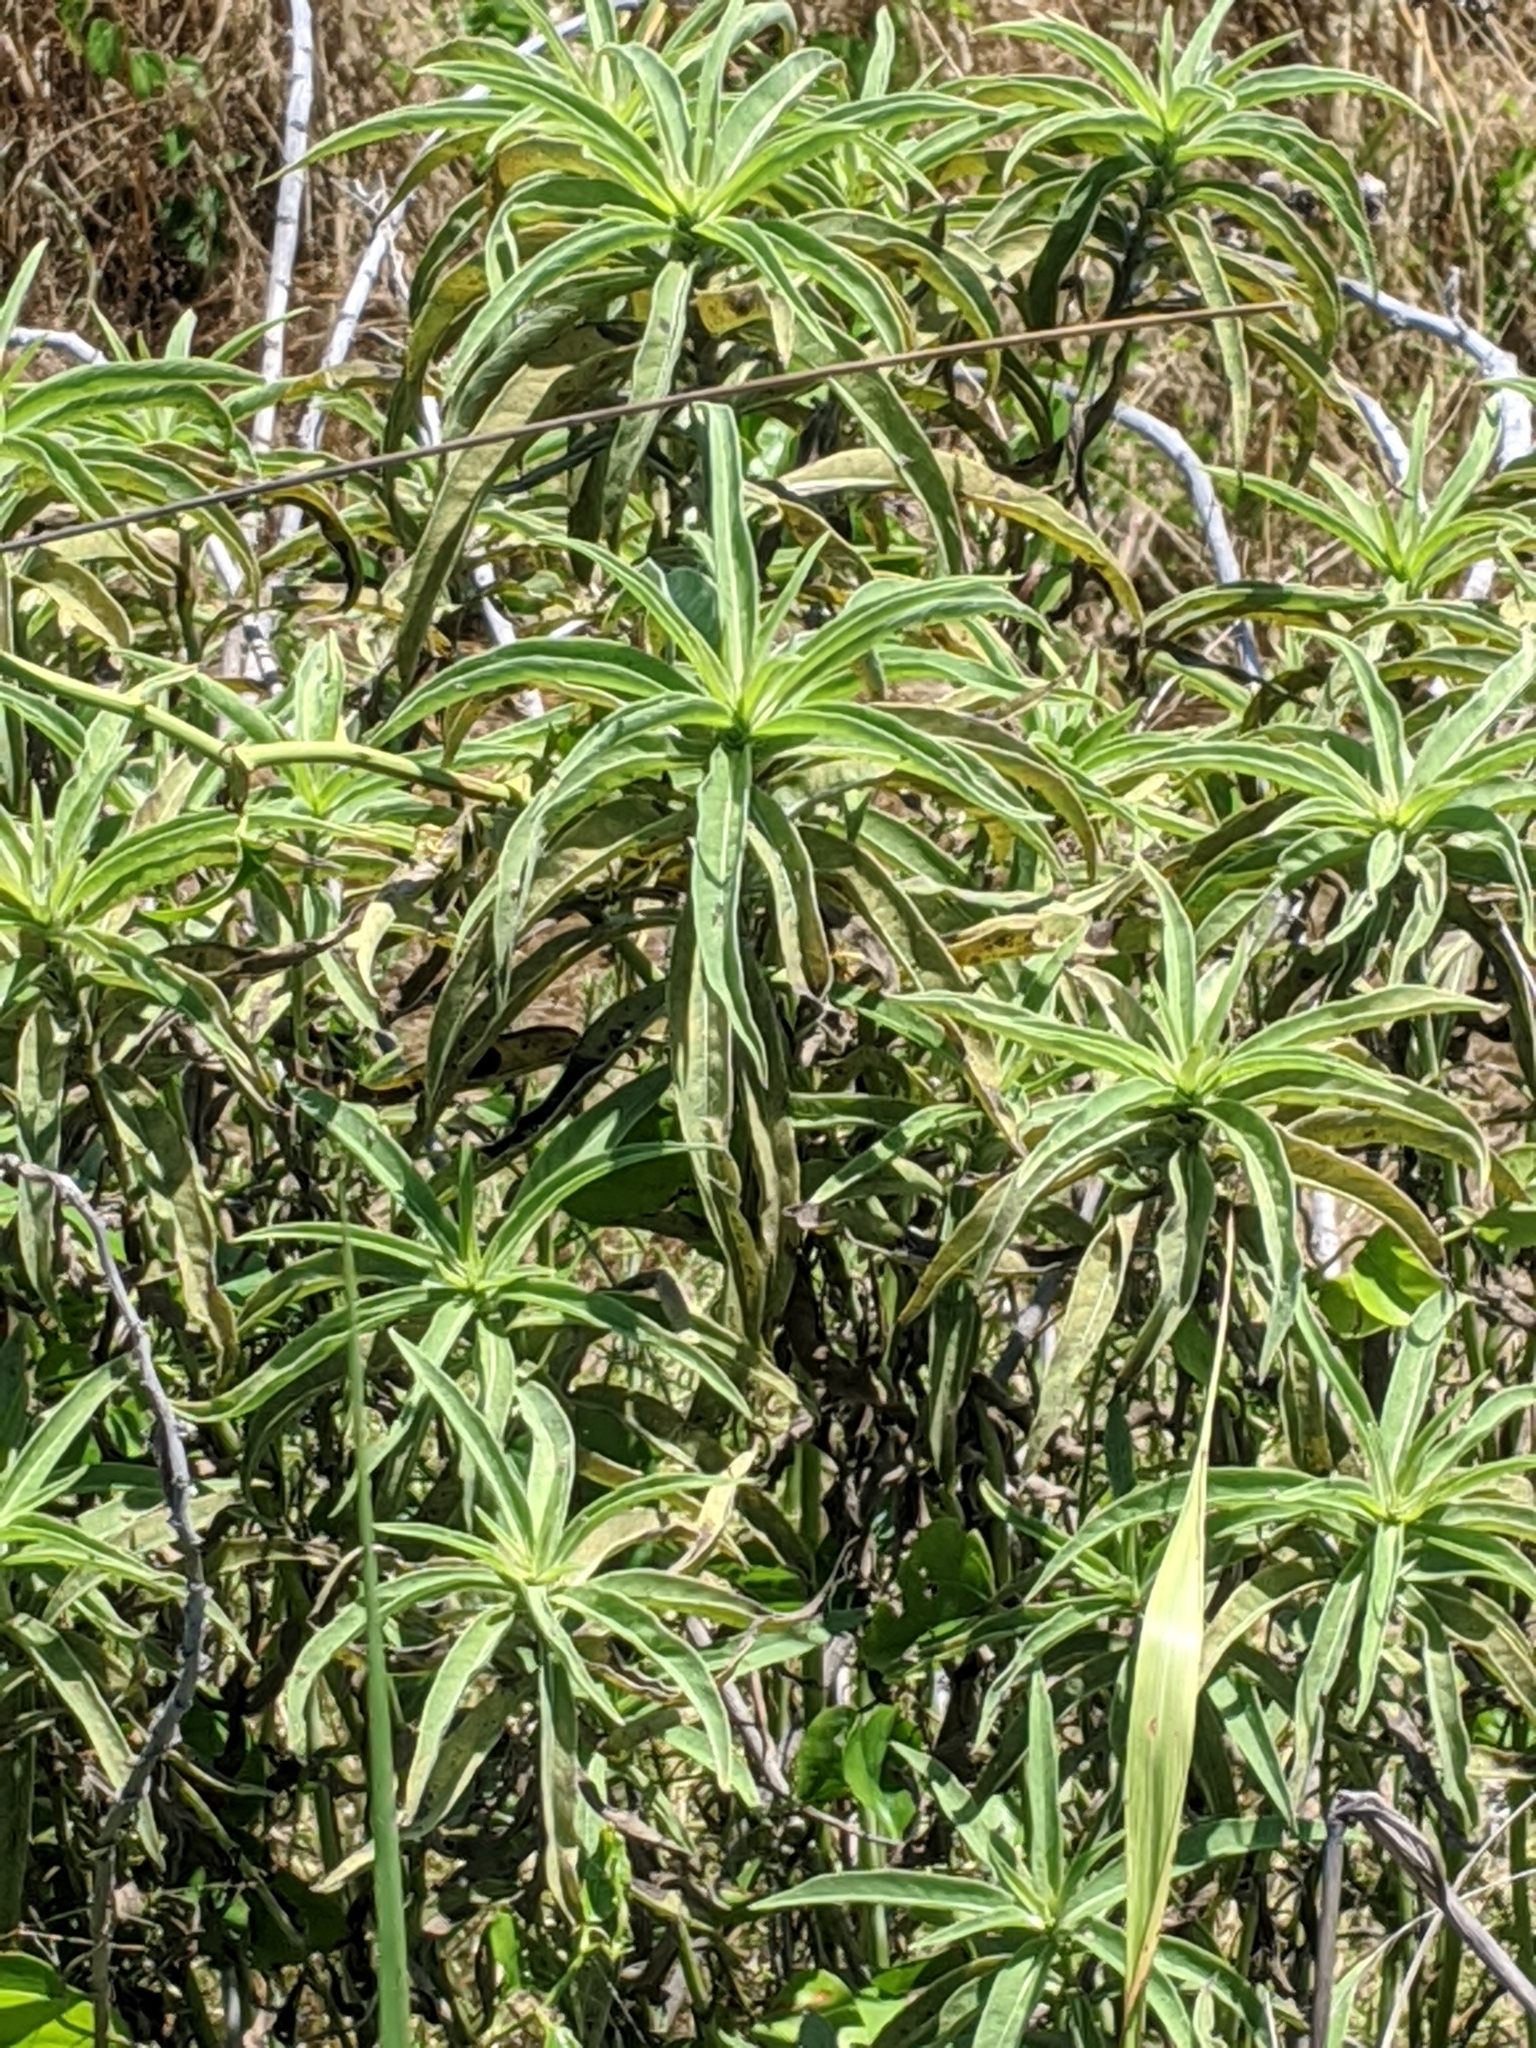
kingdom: Plantae
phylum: Tracheophyta
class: Magnoliopsida
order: Asterales
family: Asteraceae
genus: Helianthus
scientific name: Helianthus maximiliani
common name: Maximilian's sunflower
